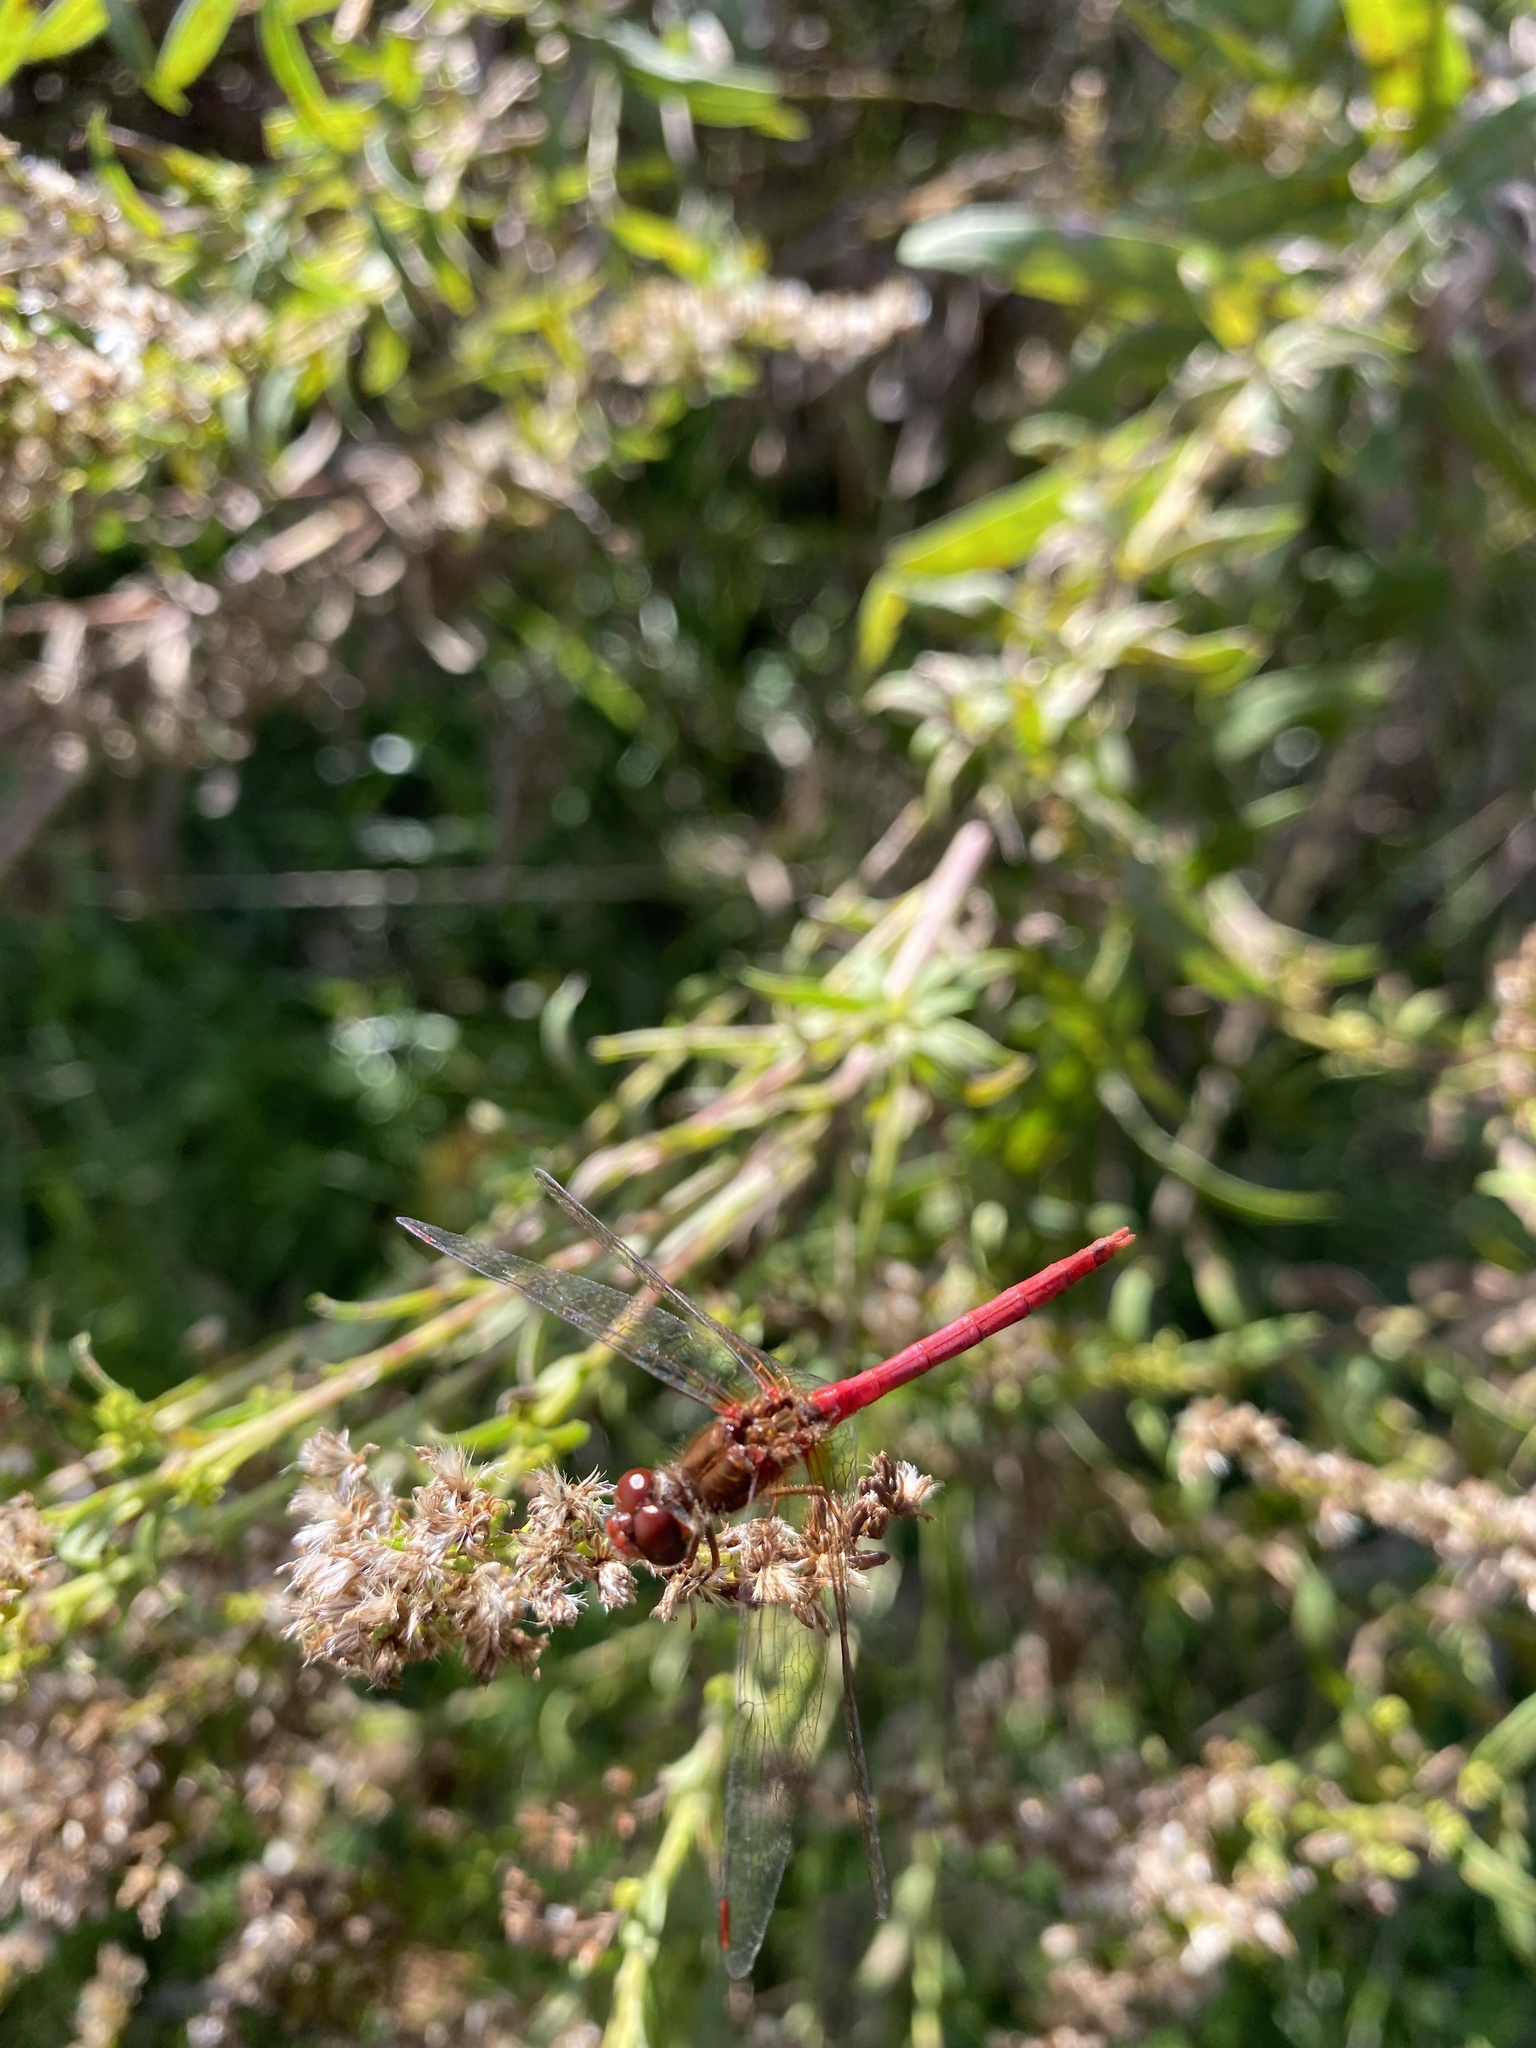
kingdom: Animalia
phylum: Arthropoda
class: Insecta
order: Odonata
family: Libellulidae
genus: Sympetrum
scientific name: Sympetrum vicinum
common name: Autumn meadowhawk
